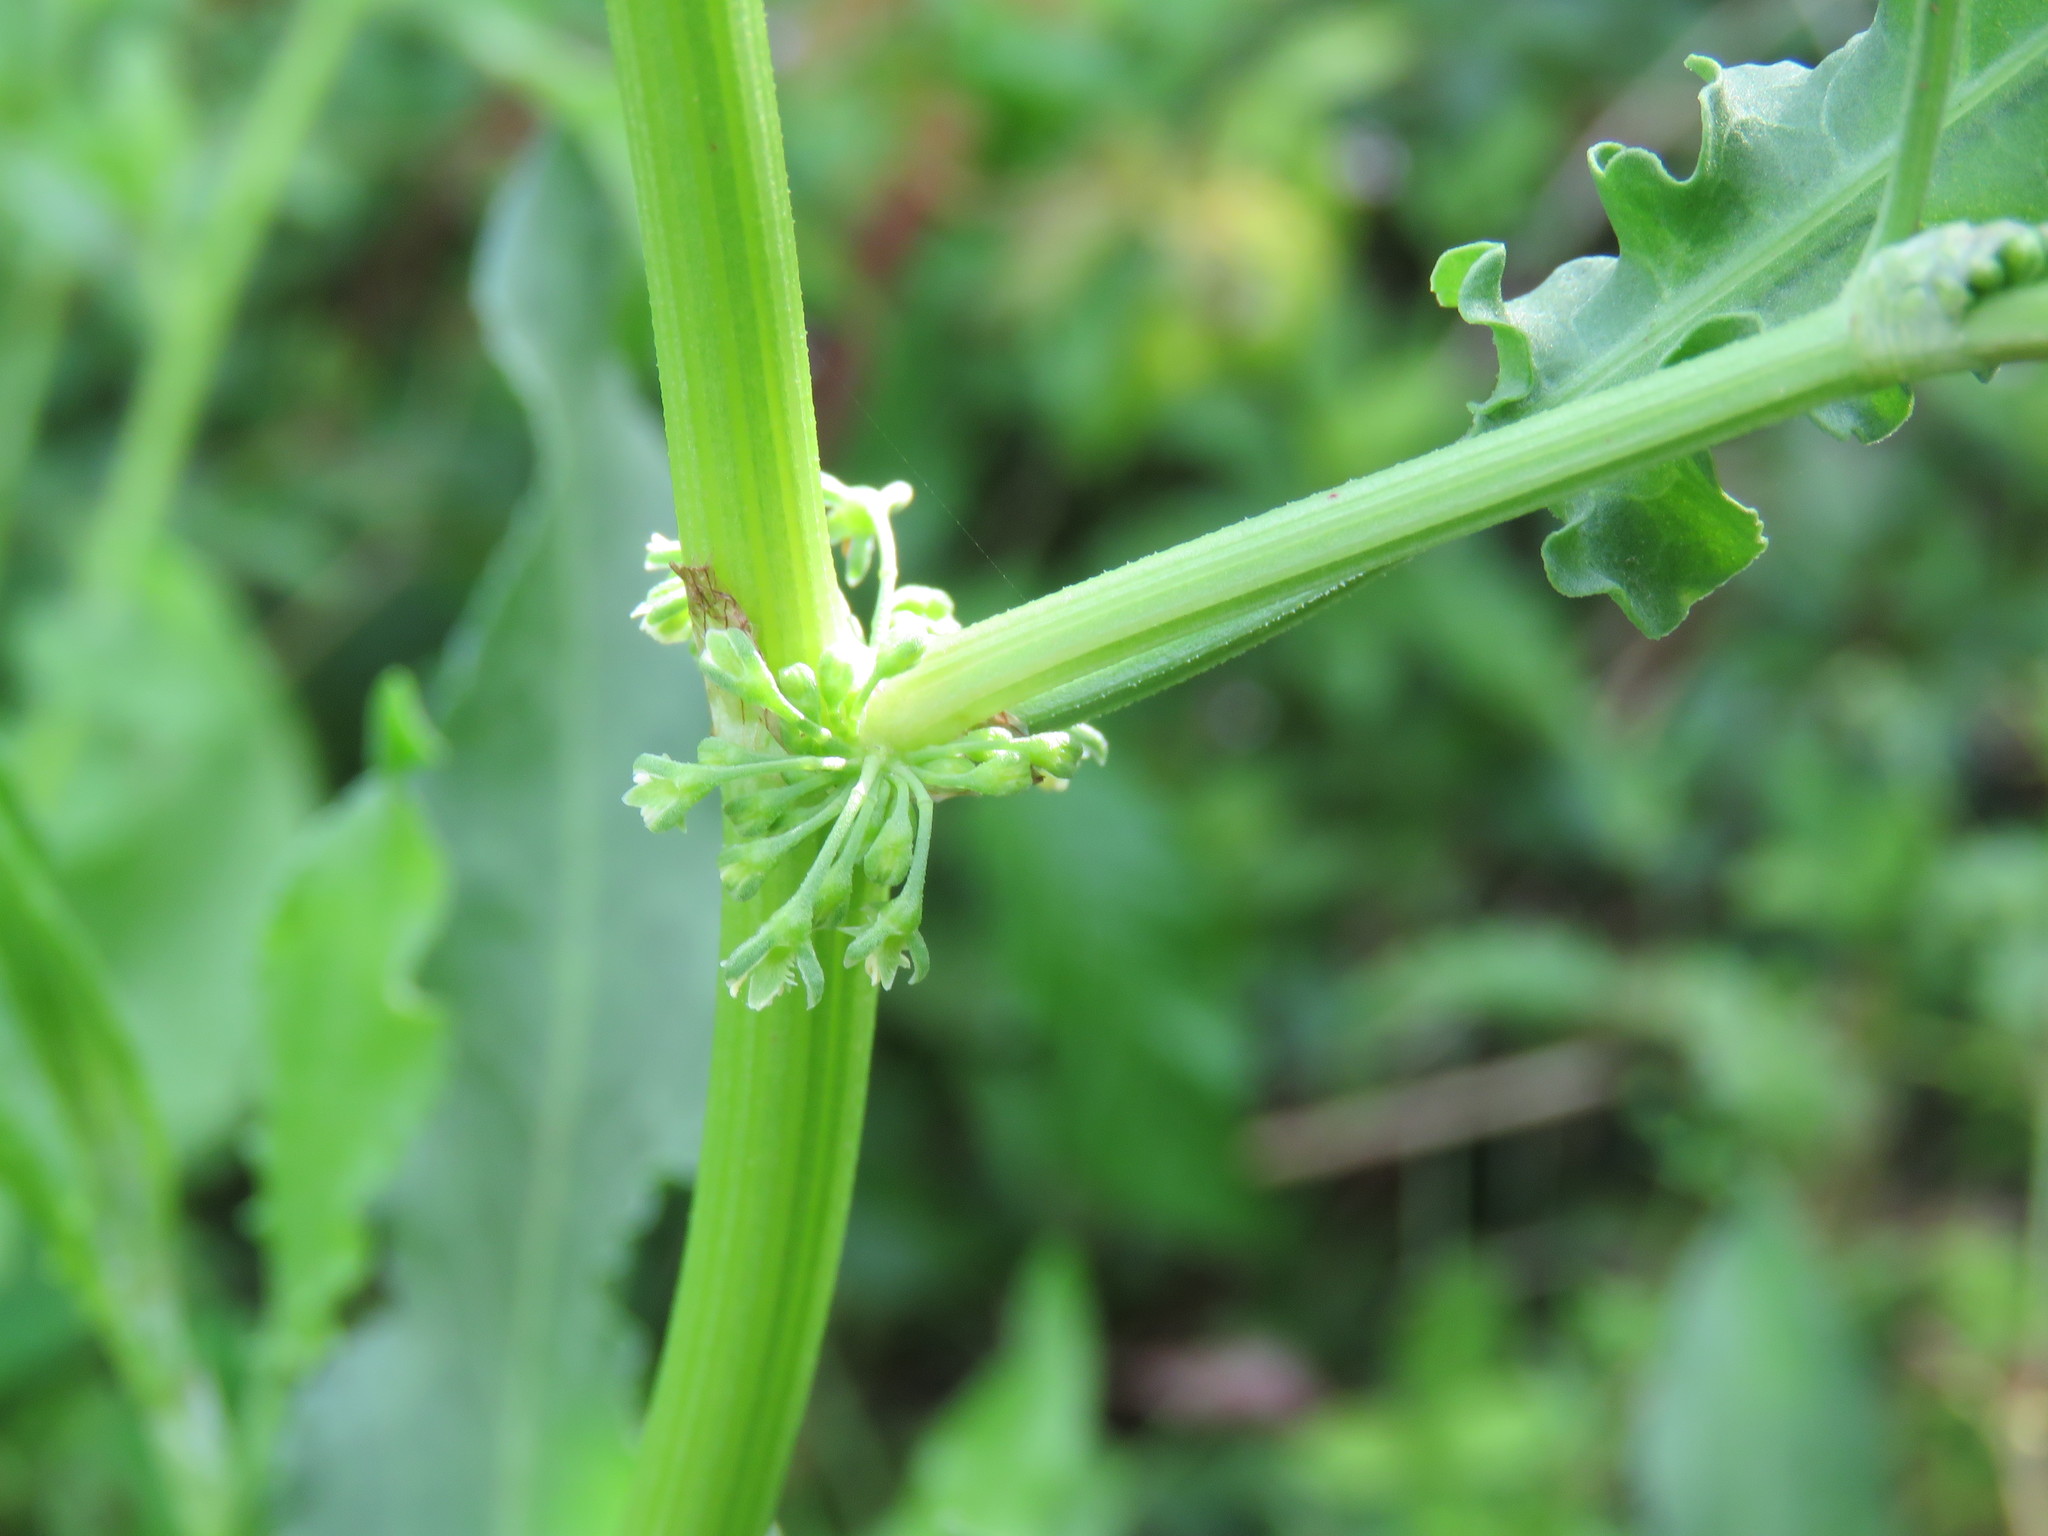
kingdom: Plantae
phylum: Tracheophyta
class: Magnoliopsida
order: Caryophyllales
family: Polygonaceae
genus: Rumex
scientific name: Rumex verticillatus
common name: Swamp dock
